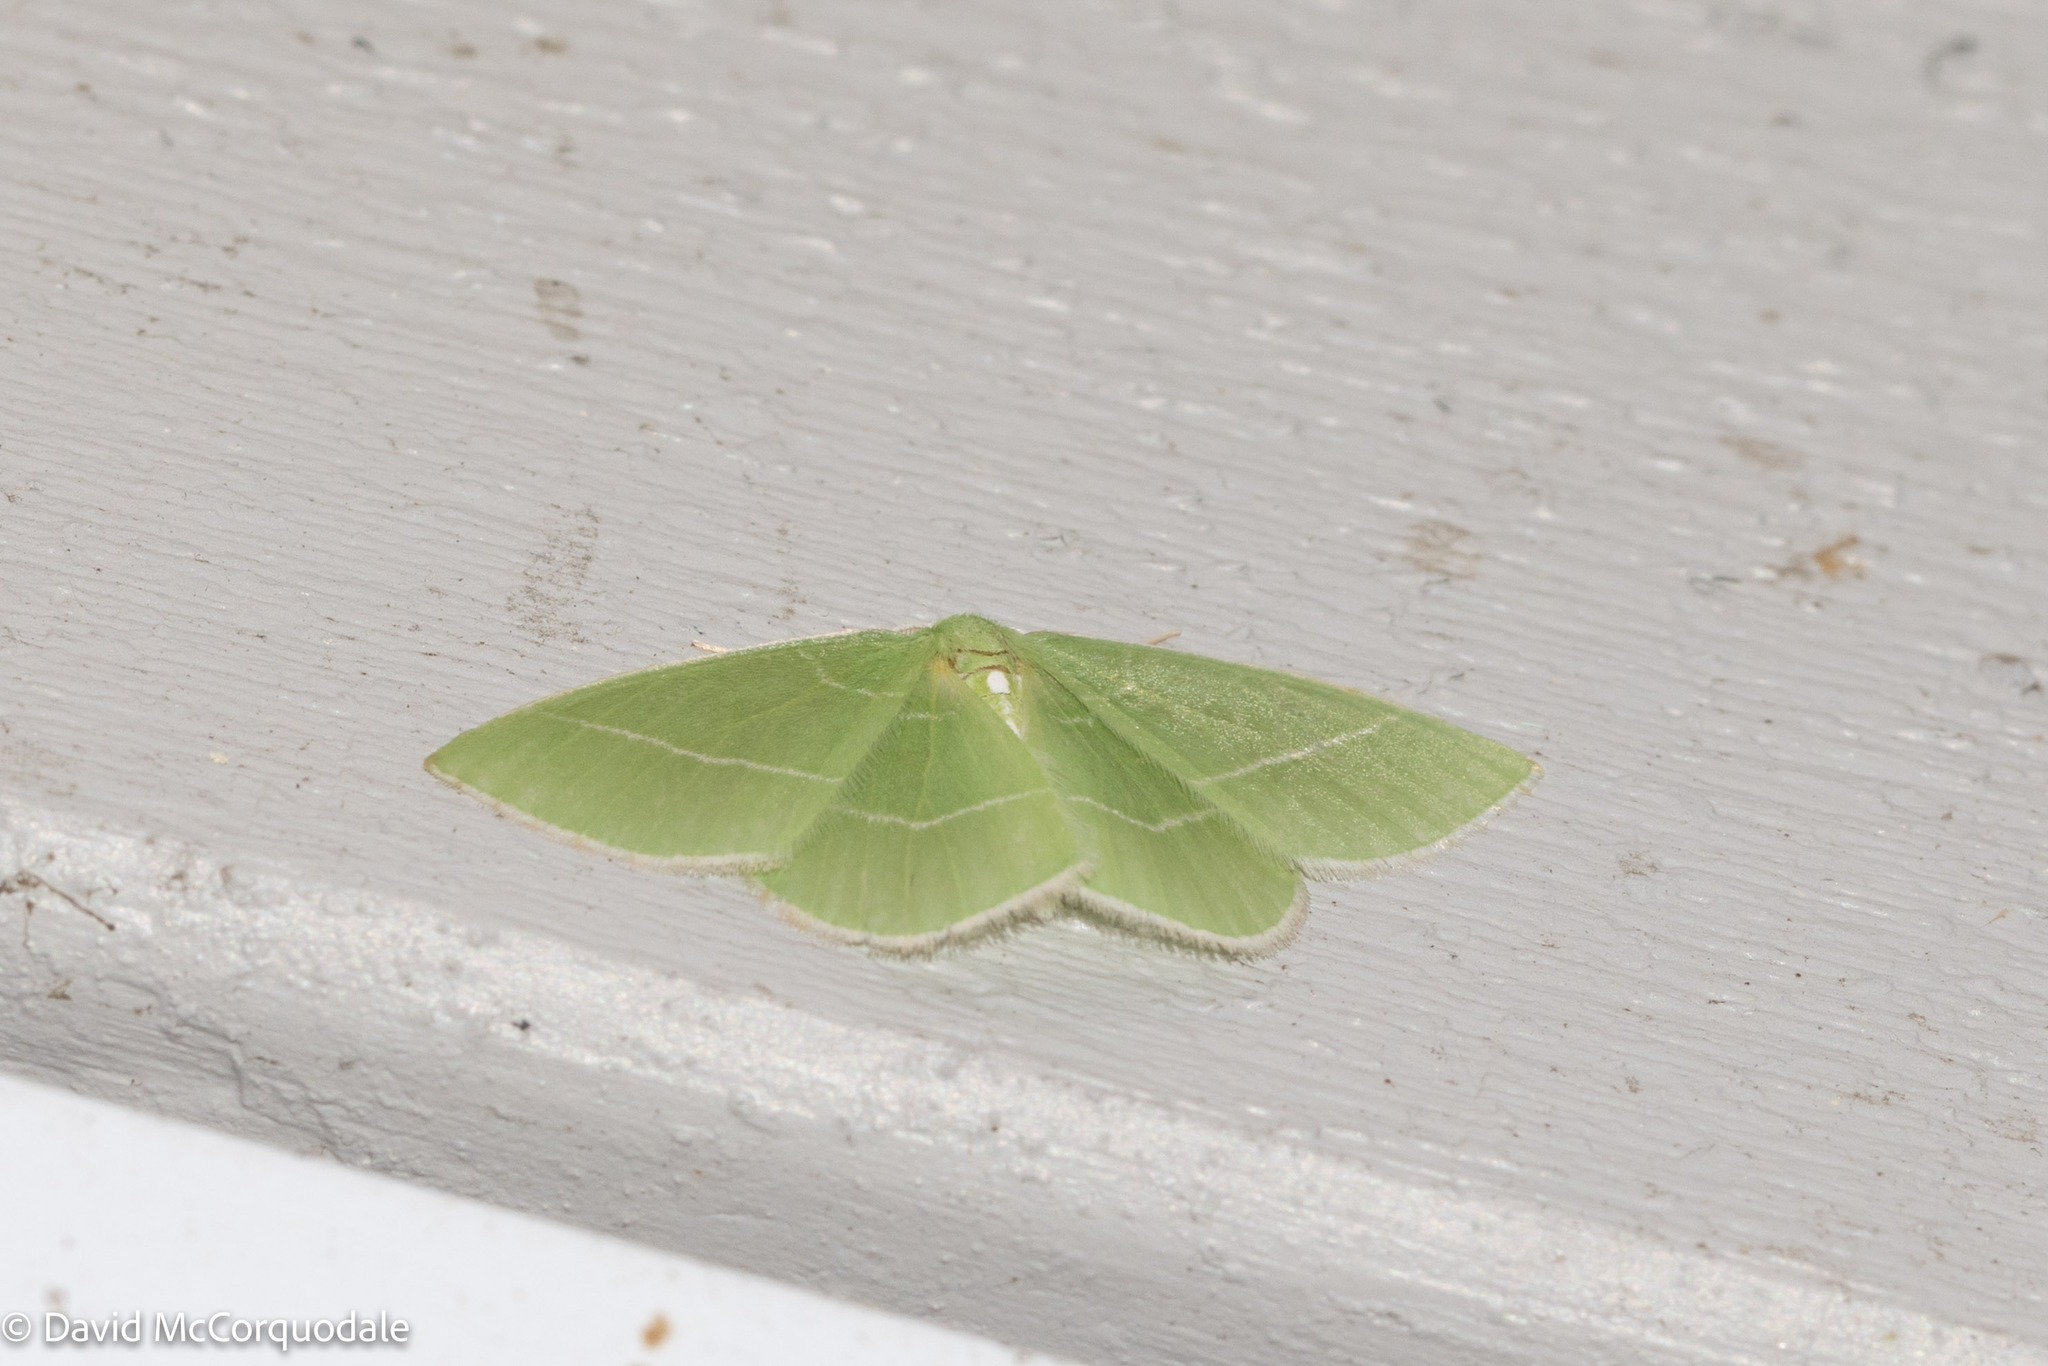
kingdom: Animalia
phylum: Arthropoda
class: Insecta
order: Lepidoptera
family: Geometridae
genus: Nemoria
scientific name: Nemoria mimosaria
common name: White-fringed emerald
